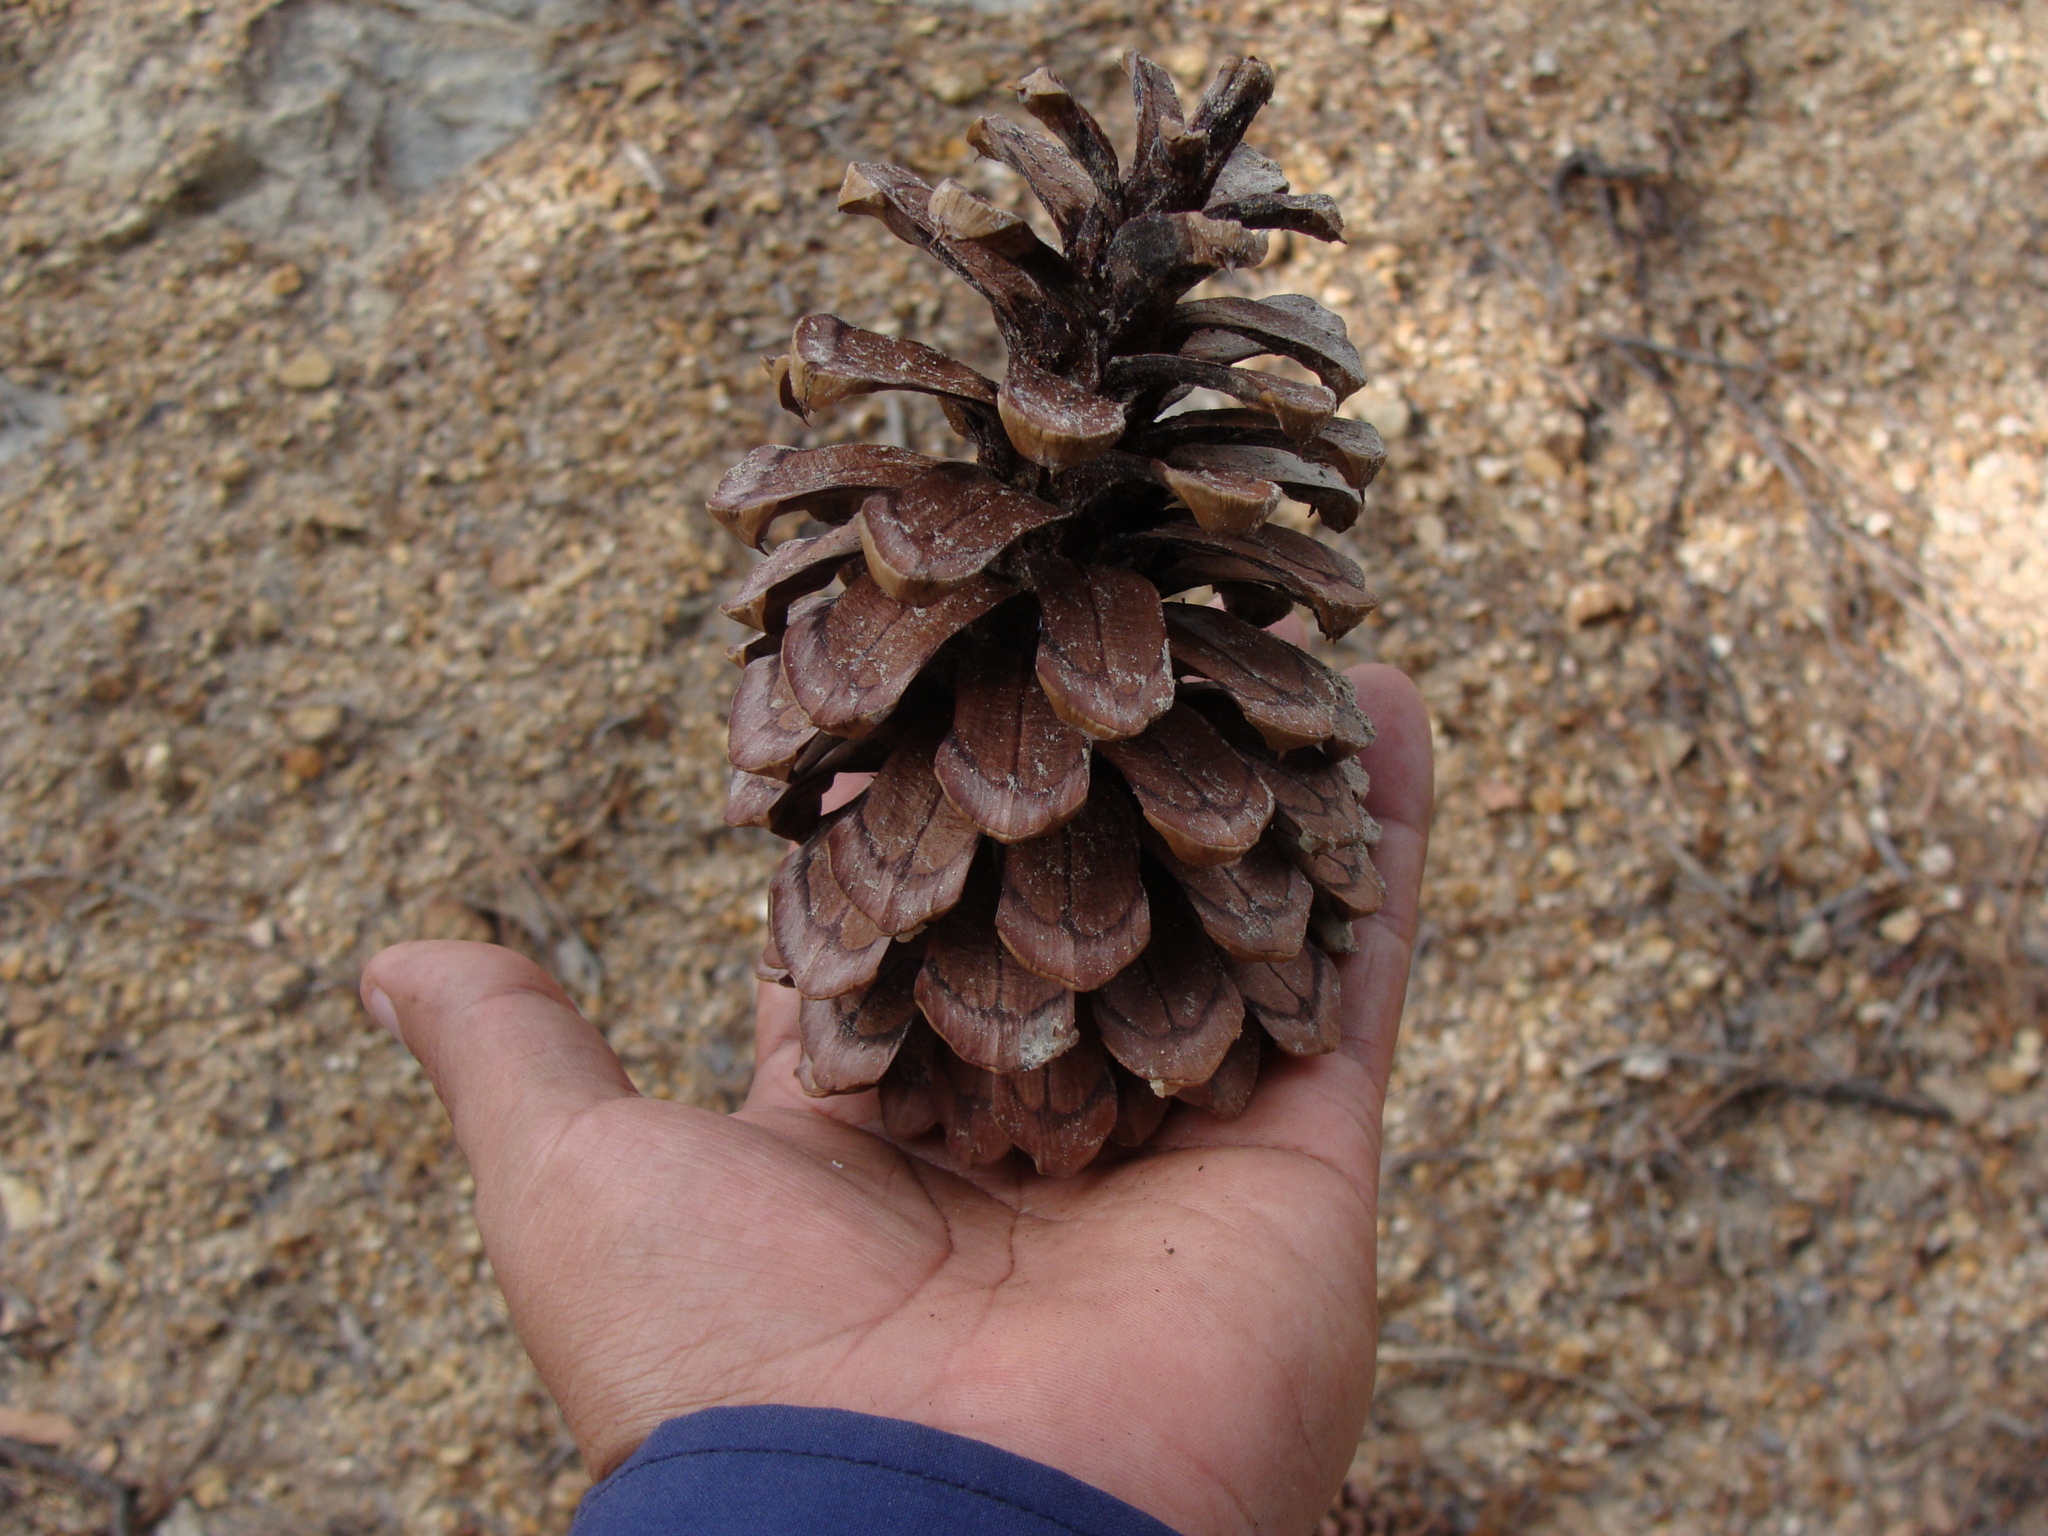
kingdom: Plantae
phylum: Tracheophyta
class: Pinopsida
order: Pinales
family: Pinaceae
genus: Pinus
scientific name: Pinus engelmannii
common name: Apache pine
